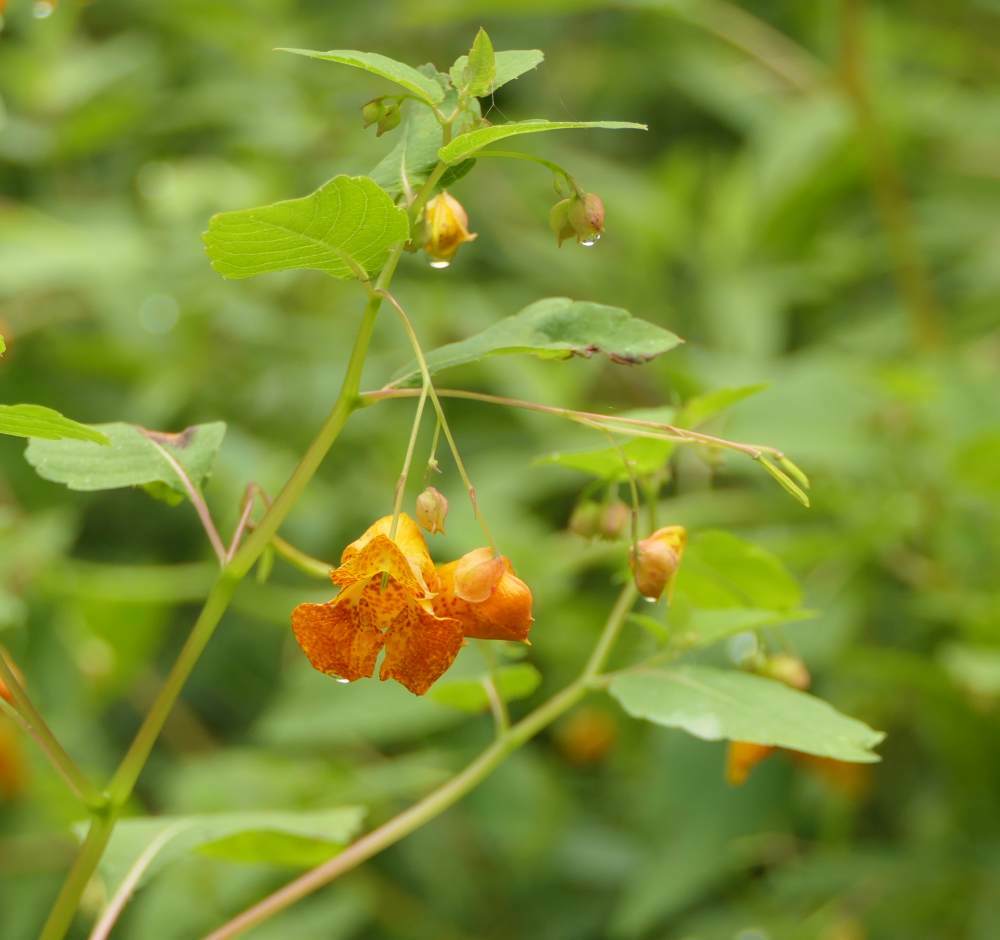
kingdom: Plantae
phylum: Tracheophyta
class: Magnoliopsida
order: Ericales
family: Balsaminaceae
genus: Impatiens
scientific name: Impatiens capensis
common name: Orange balsam
